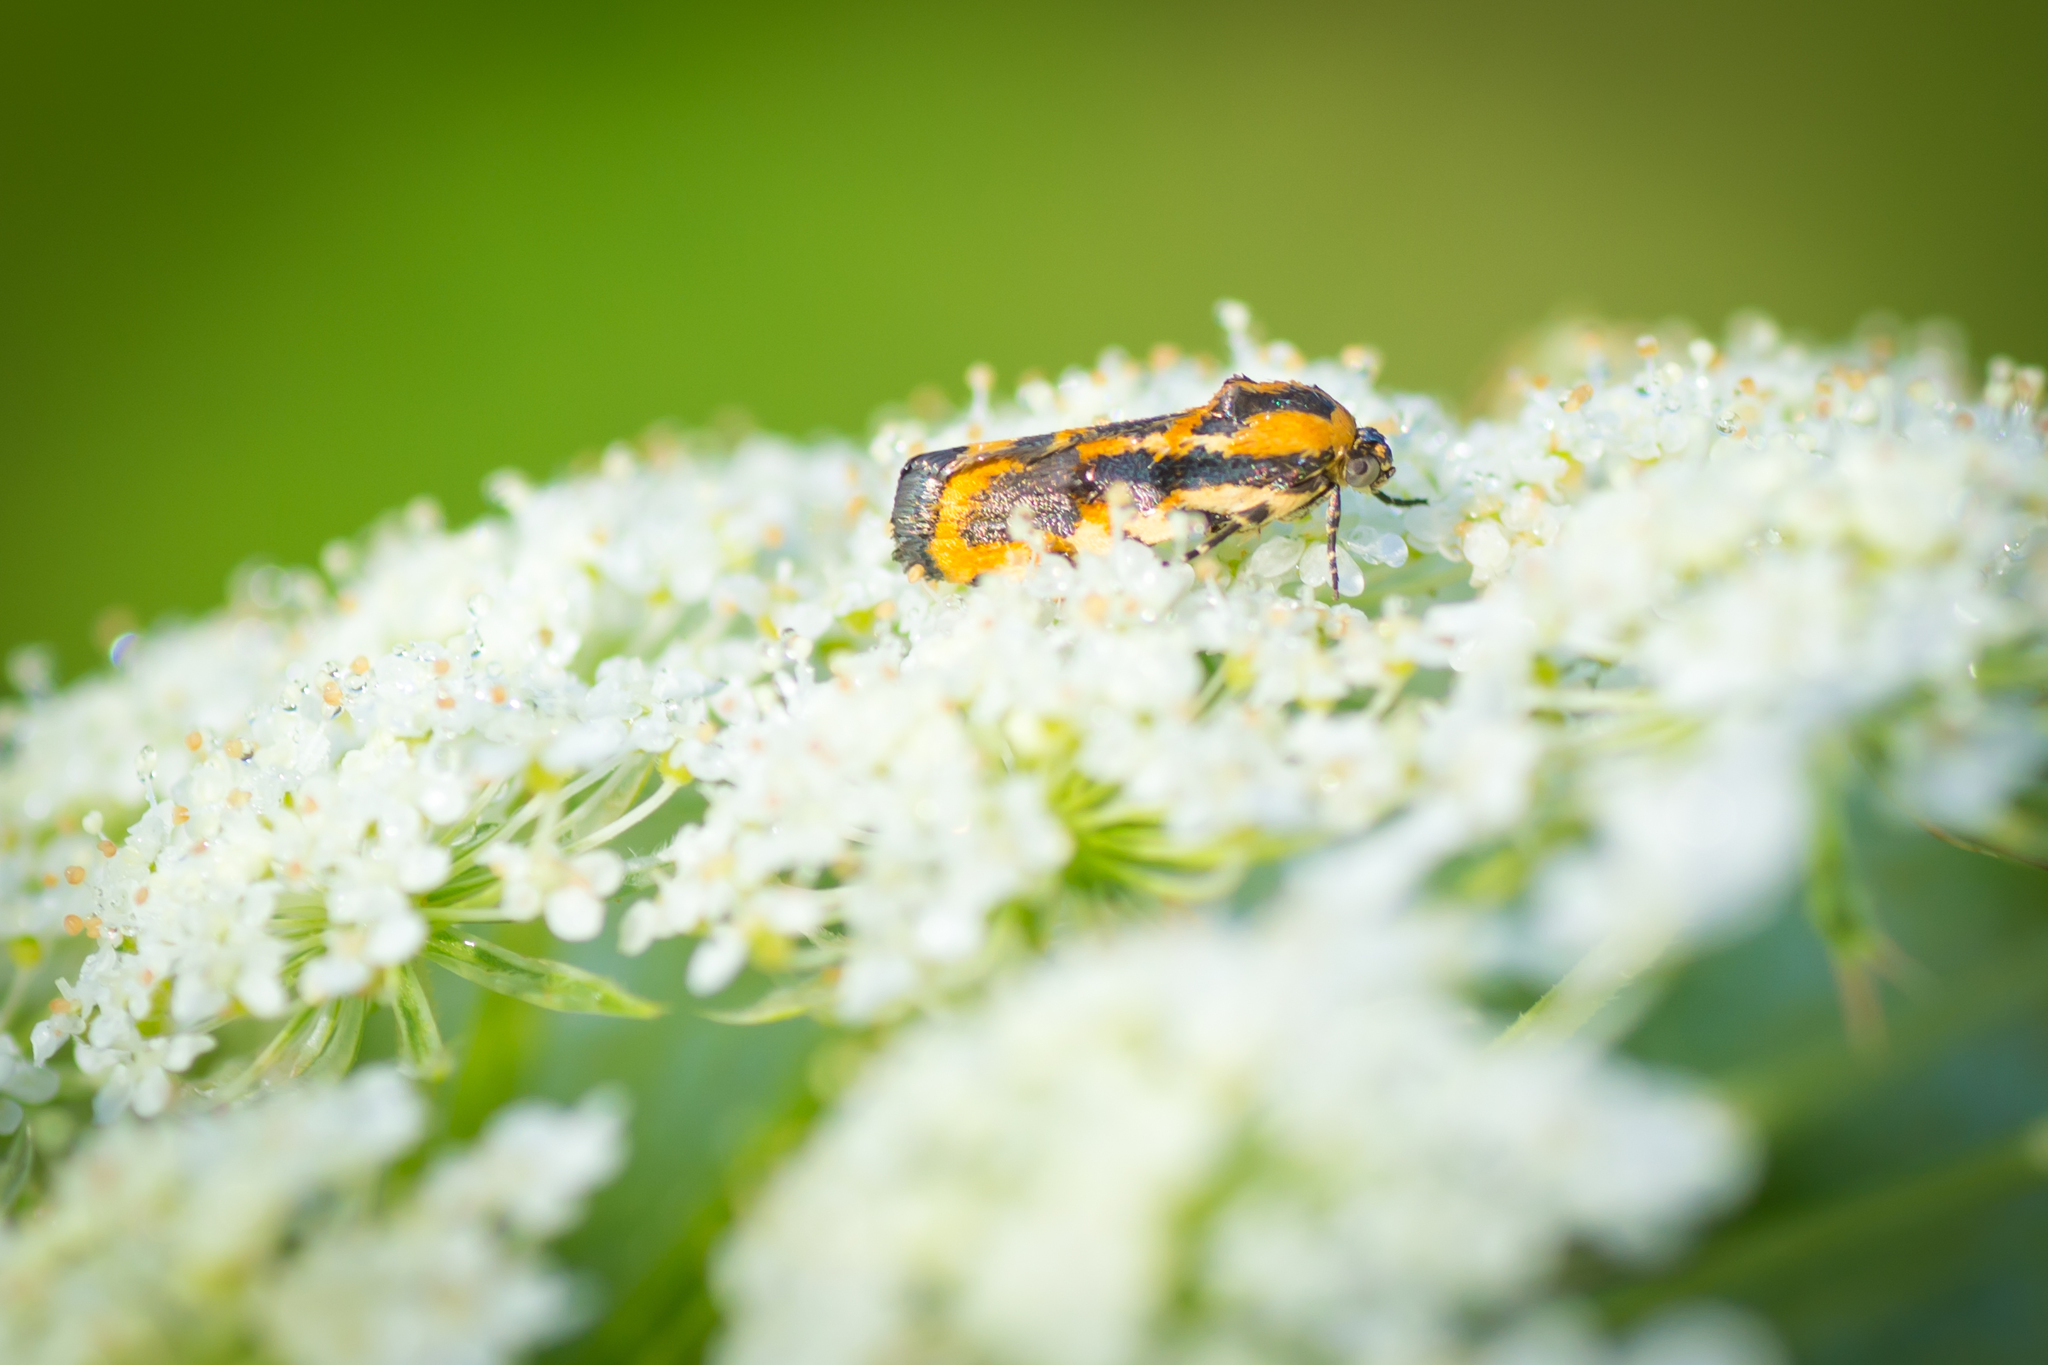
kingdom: Animalia
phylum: Arthropoda
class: Insecta
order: Lepidoptera
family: Noctuidae
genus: Acontia
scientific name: Acontia leo
